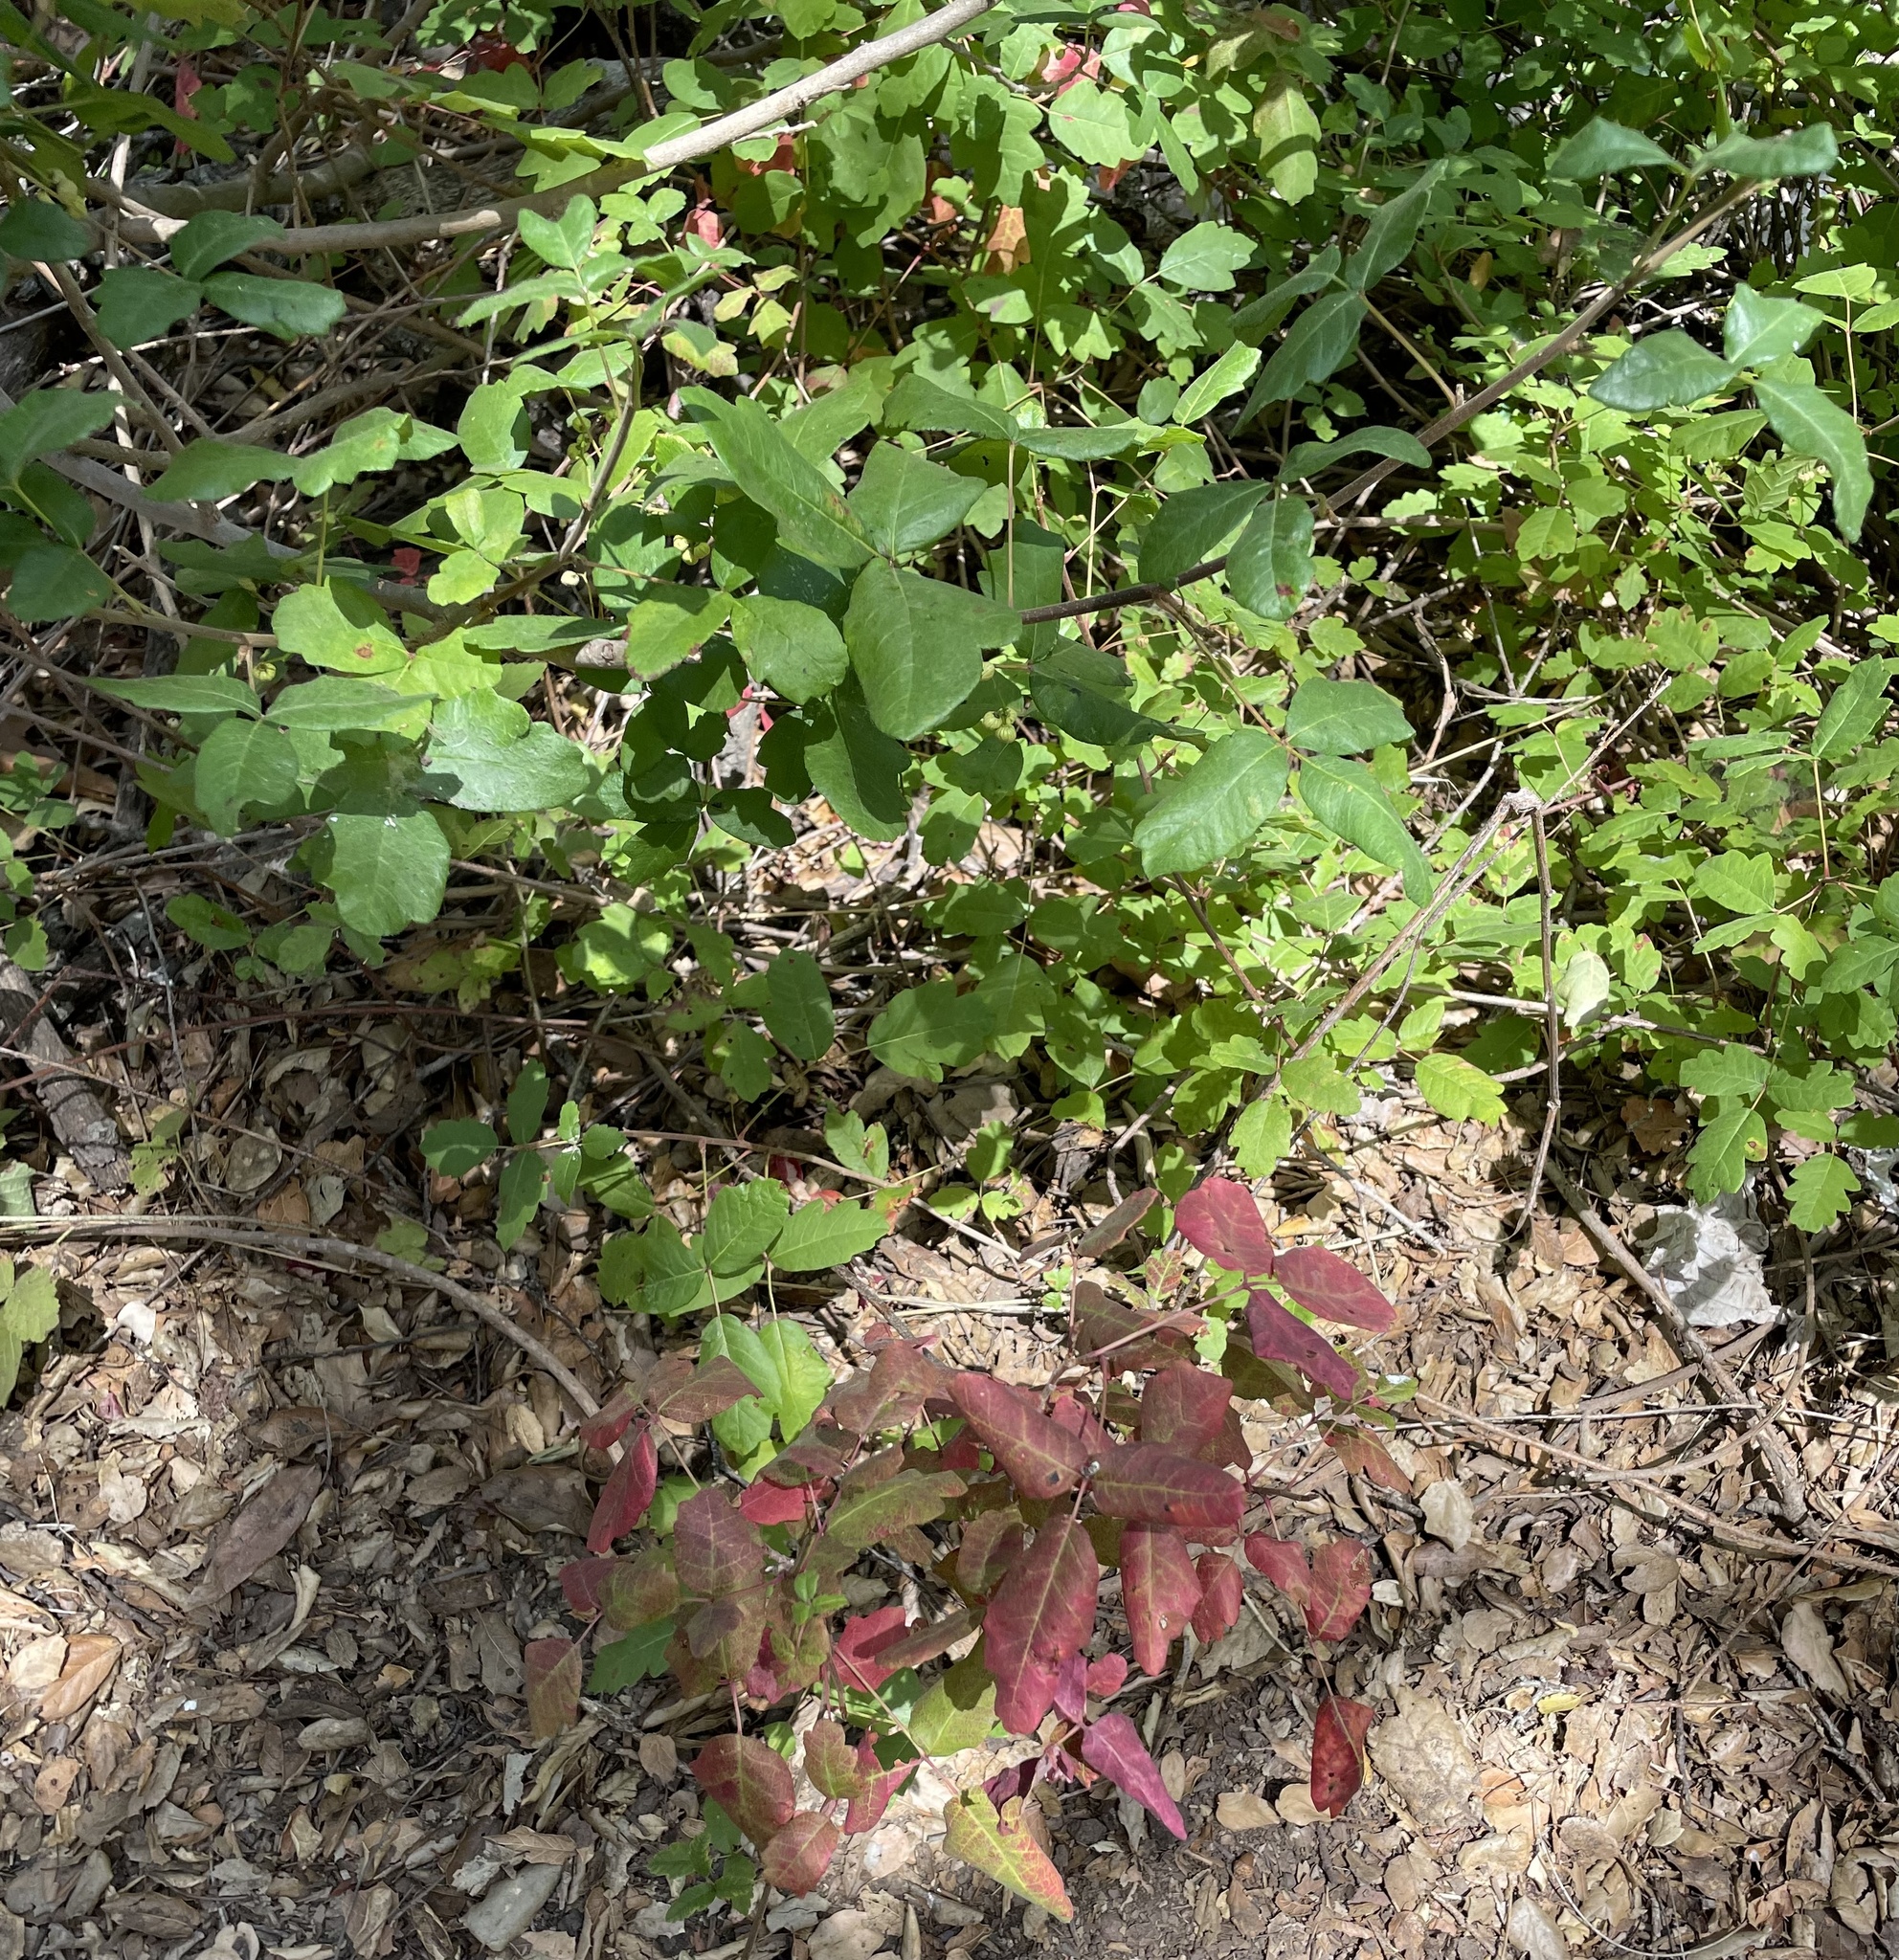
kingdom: Plantae
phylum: Tracheophyta
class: Magnoliopsida
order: Sapindales
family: Anacardiaceae
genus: Toxicodendron
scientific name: Toxicodendron diversilobum
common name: Pacific poison-oak
